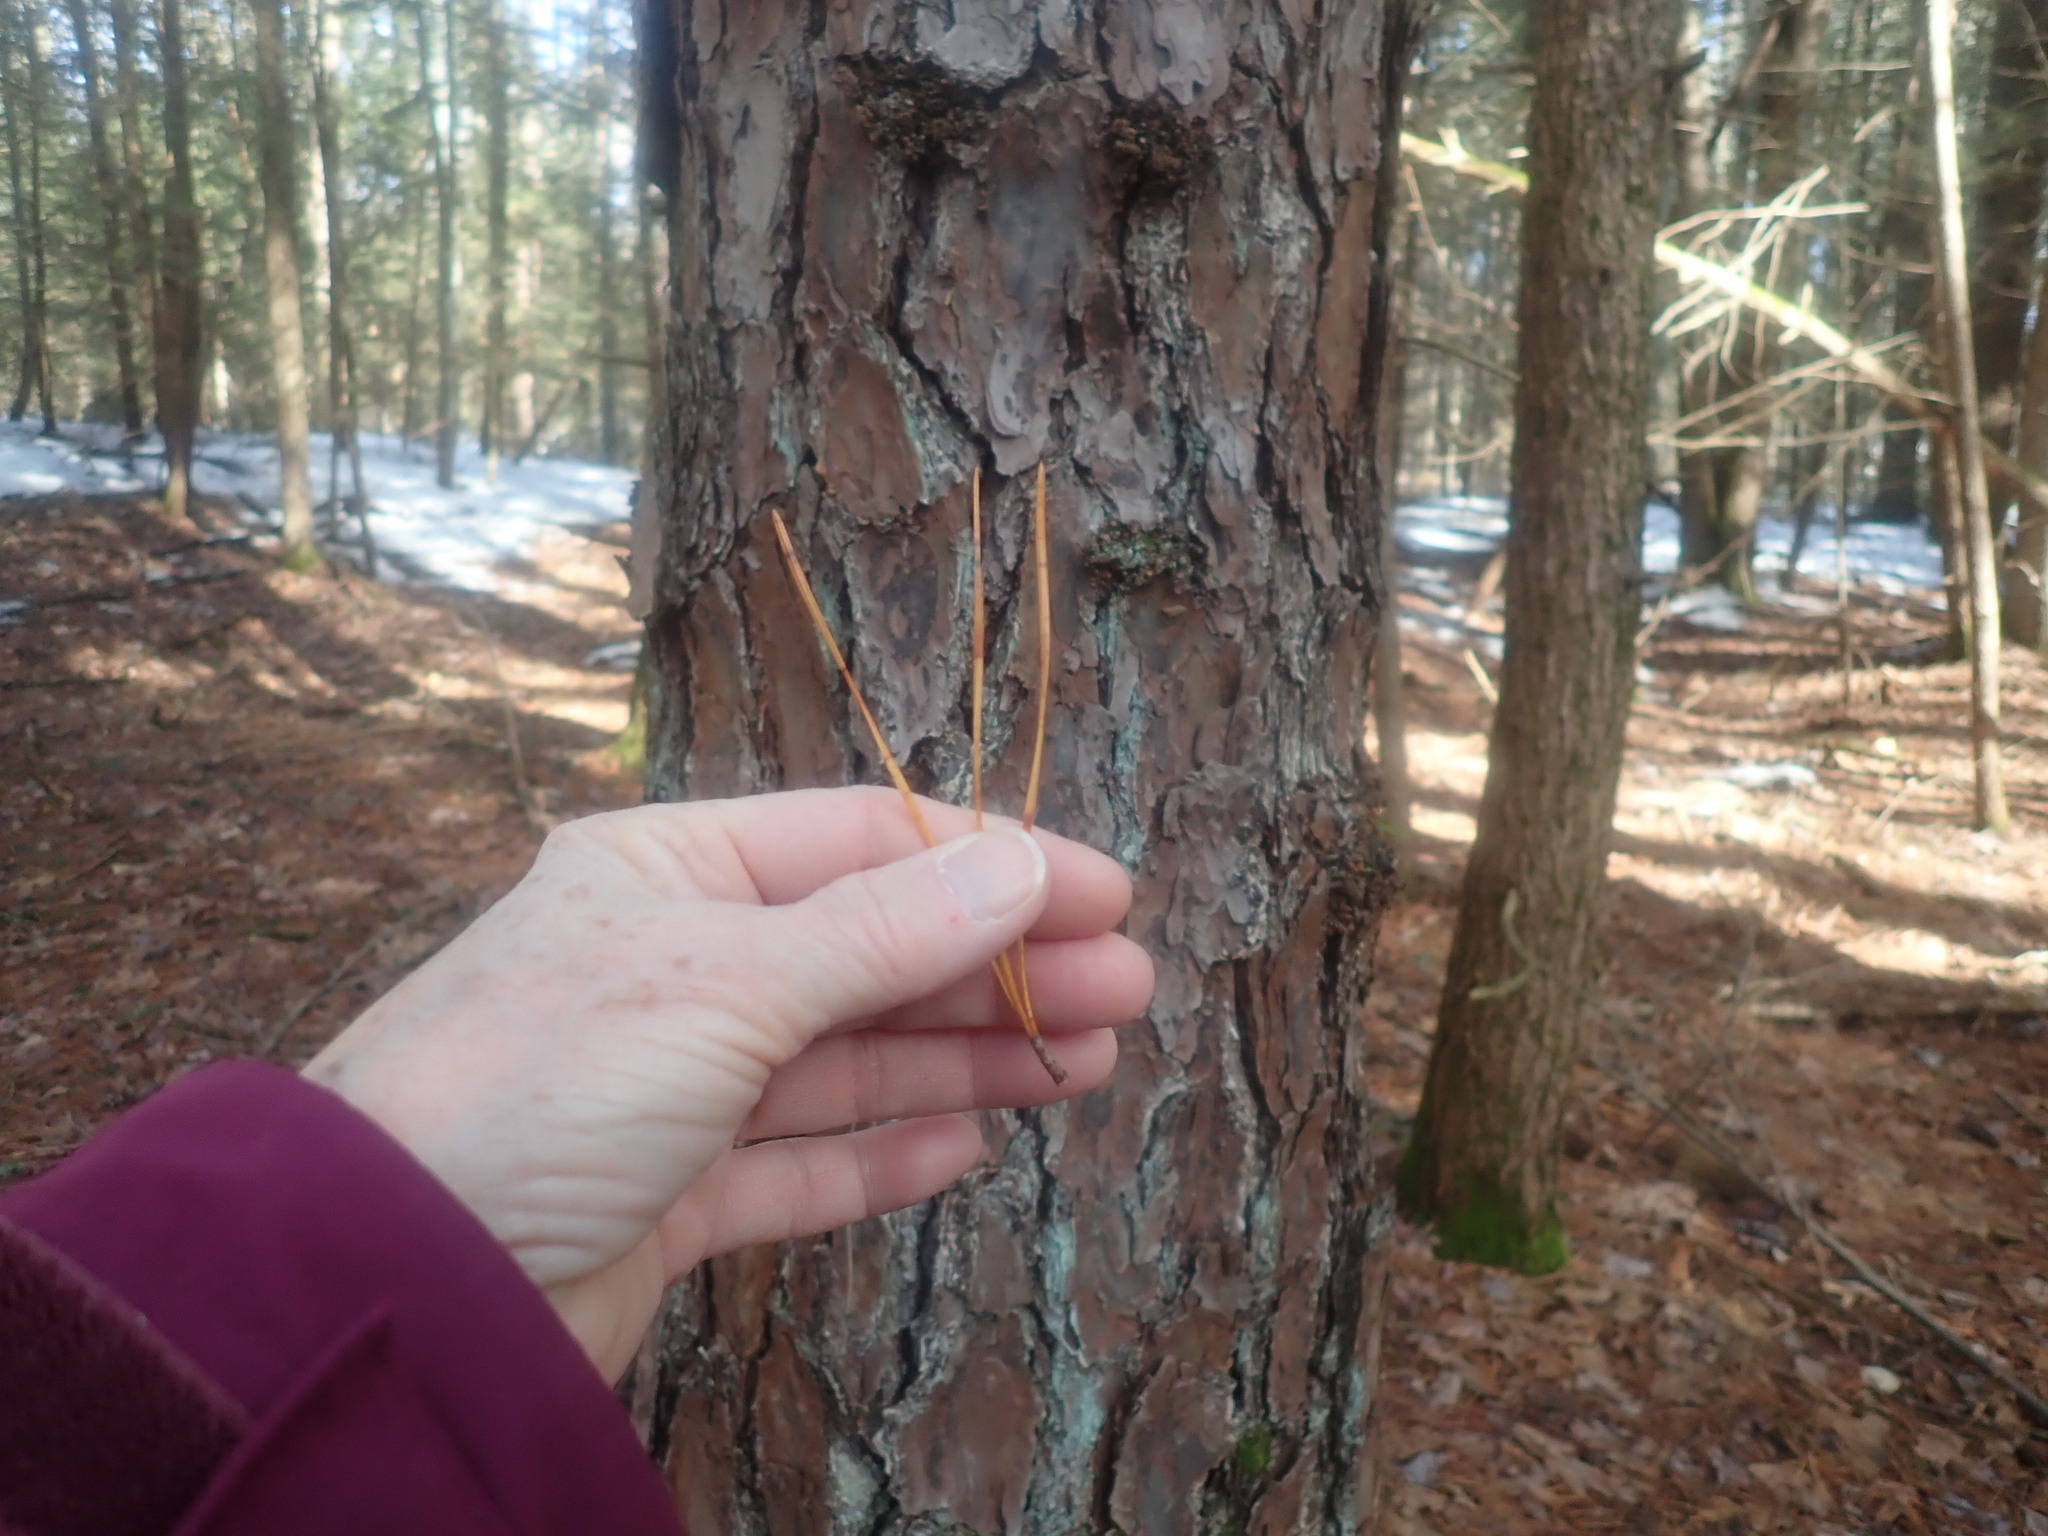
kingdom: Plantae
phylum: Tracheophyta
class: Pinopsida
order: Pinales
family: Pinaceae
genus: Pinus
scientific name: Pinus rigida
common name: Pitch pine
